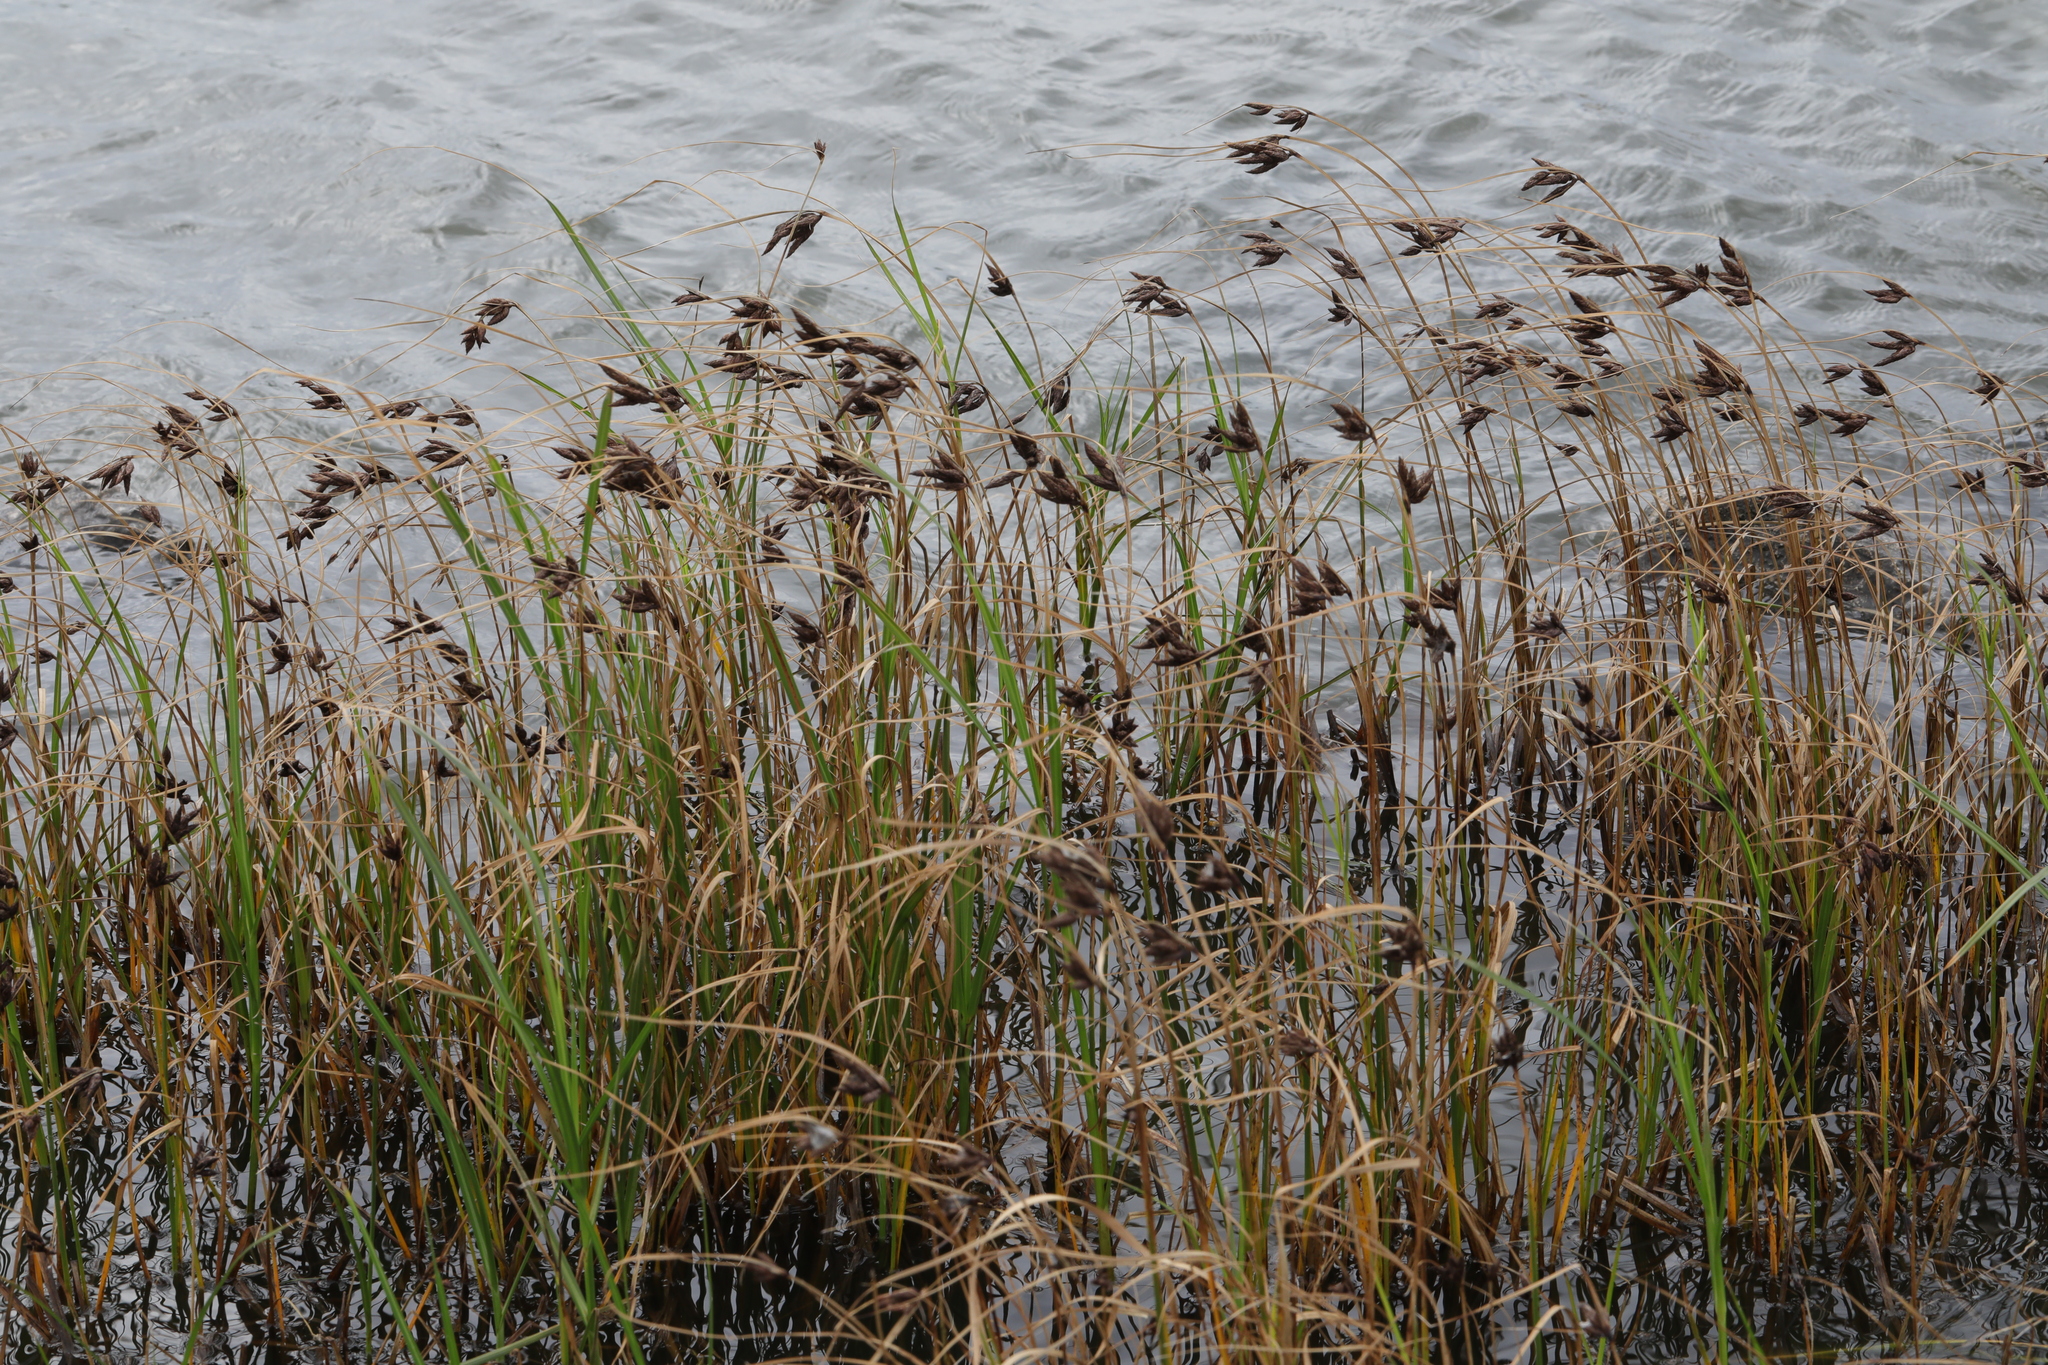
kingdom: Plantae
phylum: Tracheophyta
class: Liliopsida
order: Poales
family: Cyperaceae
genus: Bolboschoenus
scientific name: Bolboschoenus maritimus
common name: Sea club-rush
